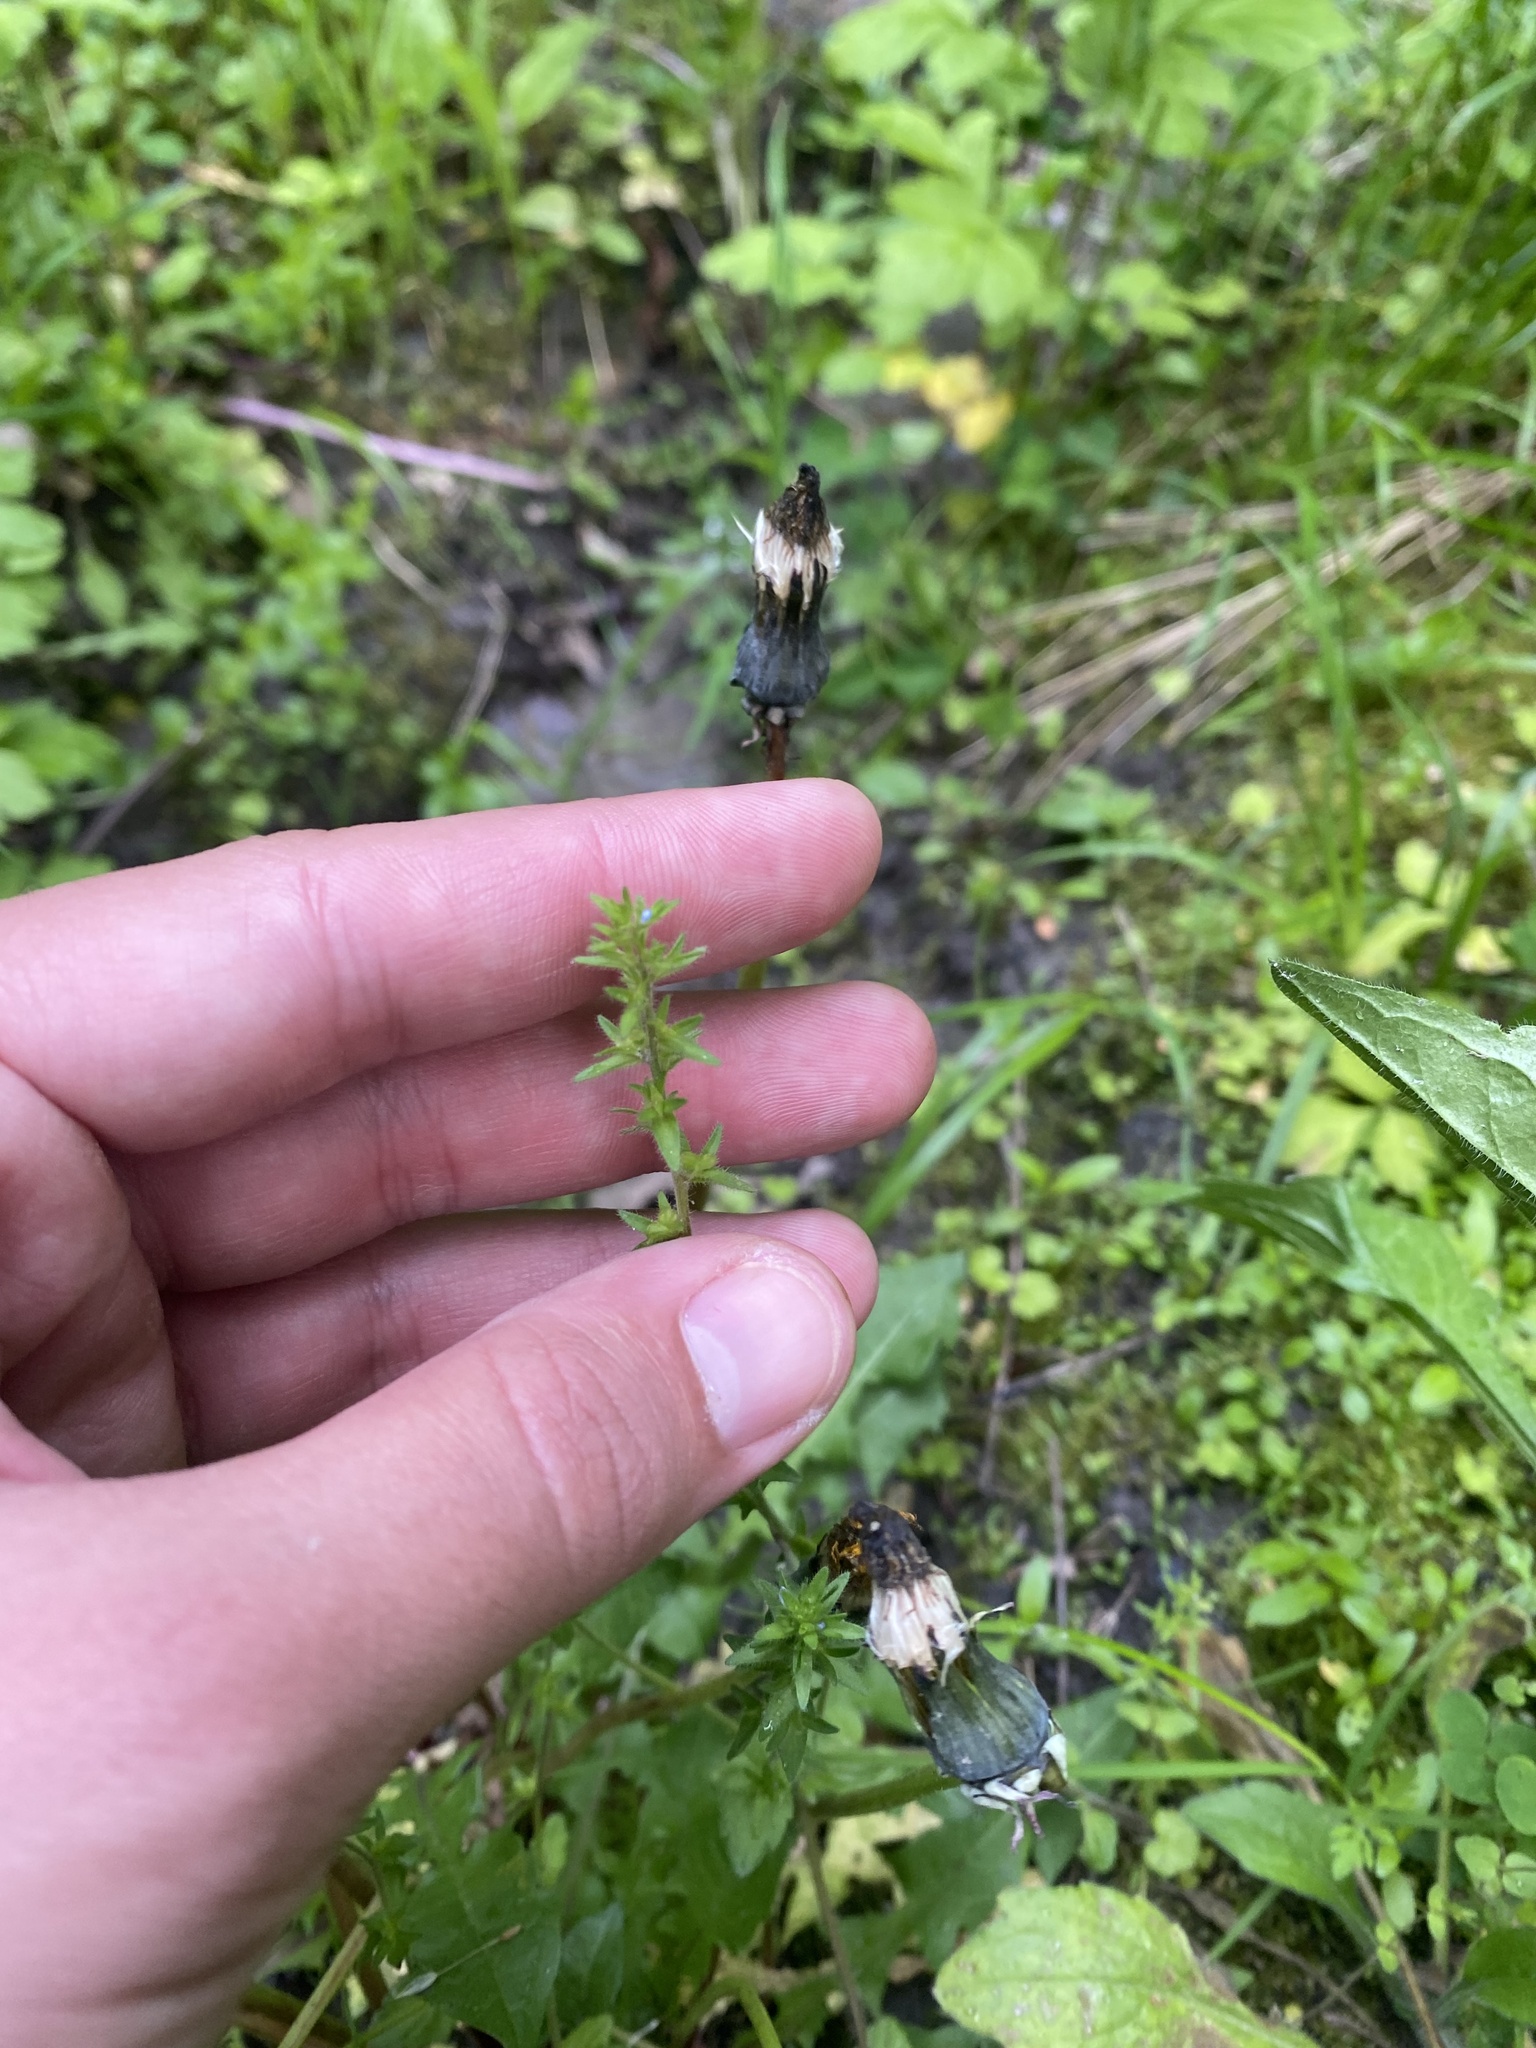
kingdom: Plantae
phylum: Tracheophyta
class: Magnoliopsida
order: Lamiales
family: Plantaginaceae
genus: Veronica
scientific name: Veronica arvensis
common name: Corn speedwell
